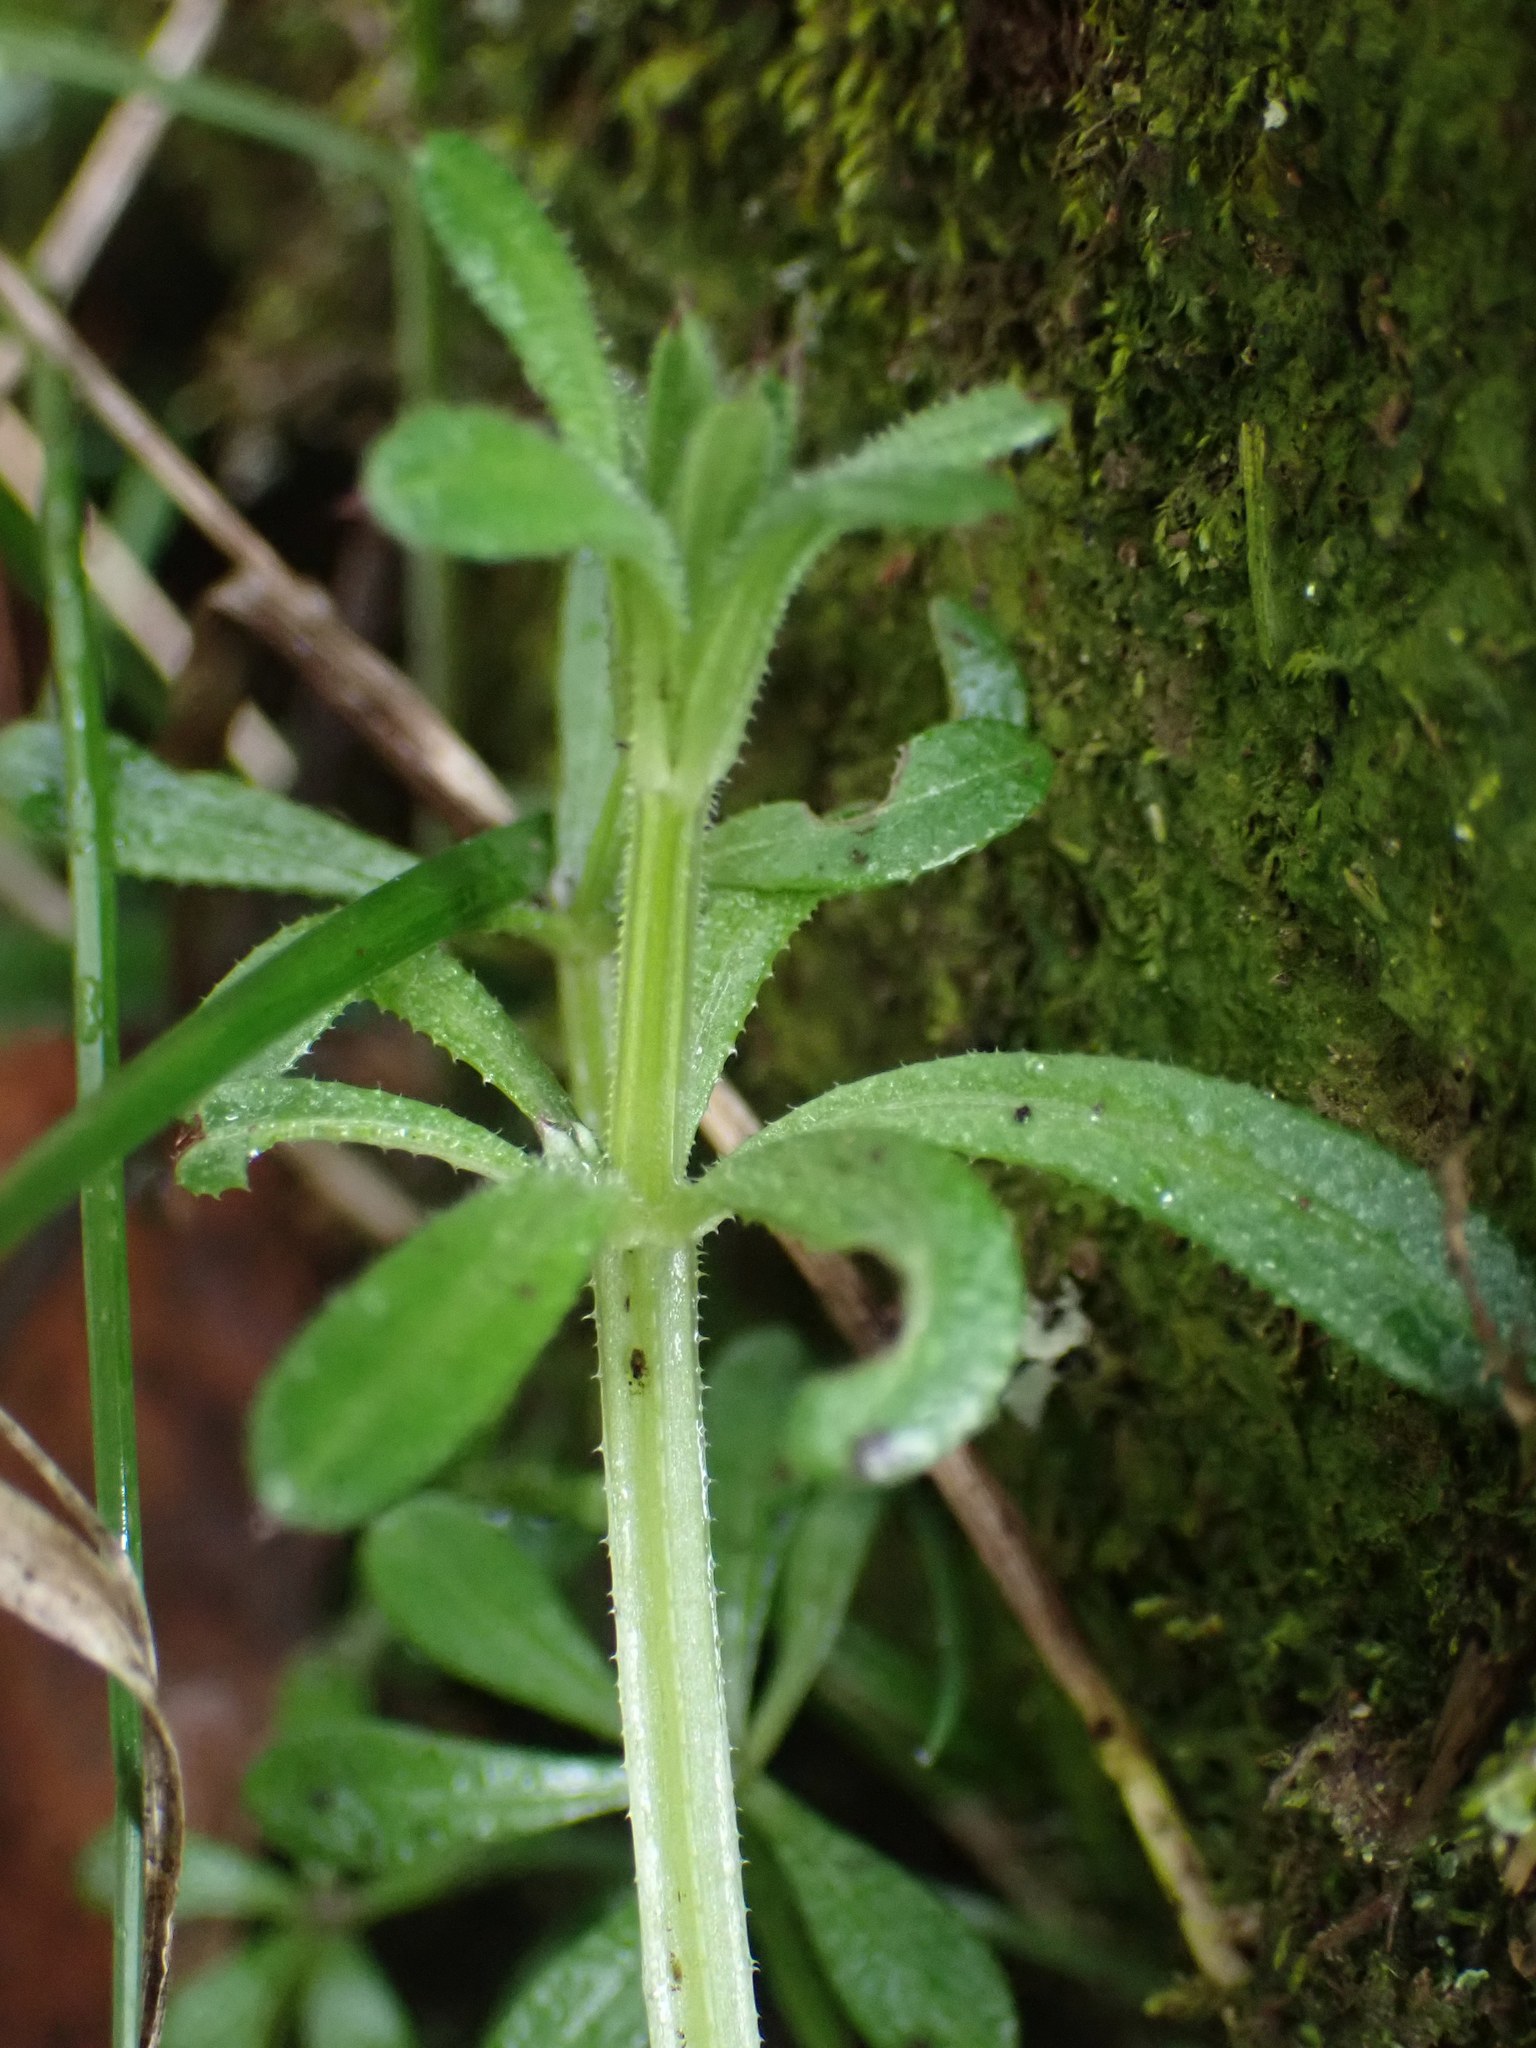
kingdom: Plantae
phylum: Tracheophyta
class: Magnoliopsida
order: Gentianales
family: Rubiaceae
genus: Galium
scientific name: Galium aparine
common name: Cleavers
